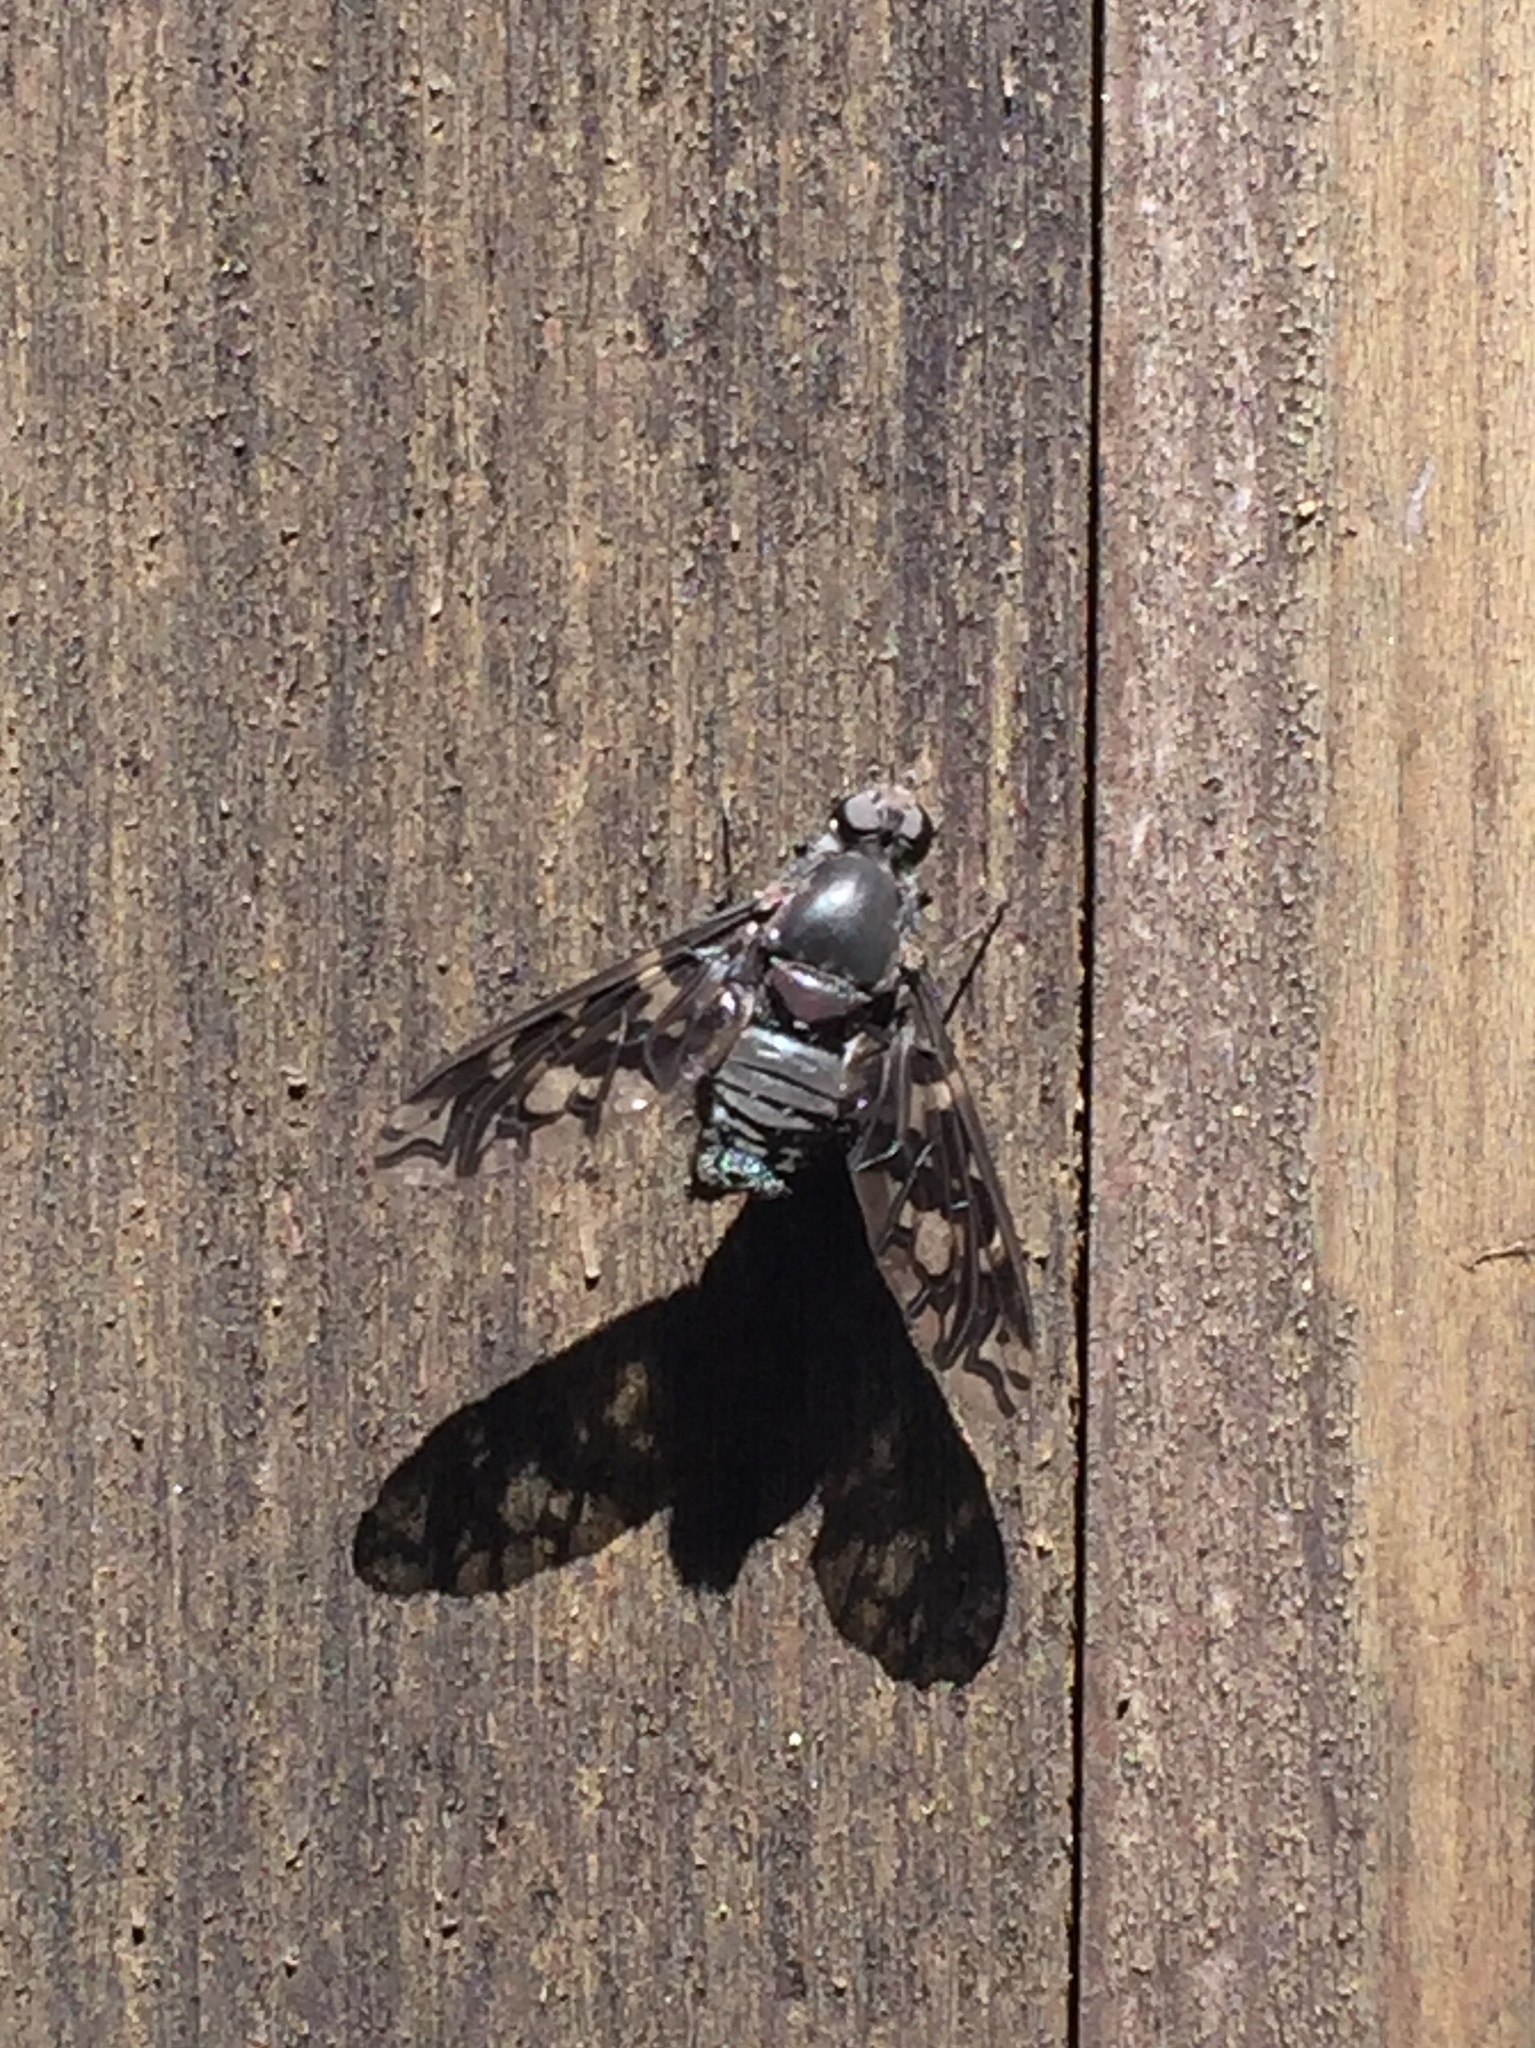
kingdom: Animalia
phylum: Arthropoda
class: Insecta
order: Diptera
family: Bombyliidae
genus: Xenox
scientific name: Xenox tigrinus
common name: Tiger bee fly
